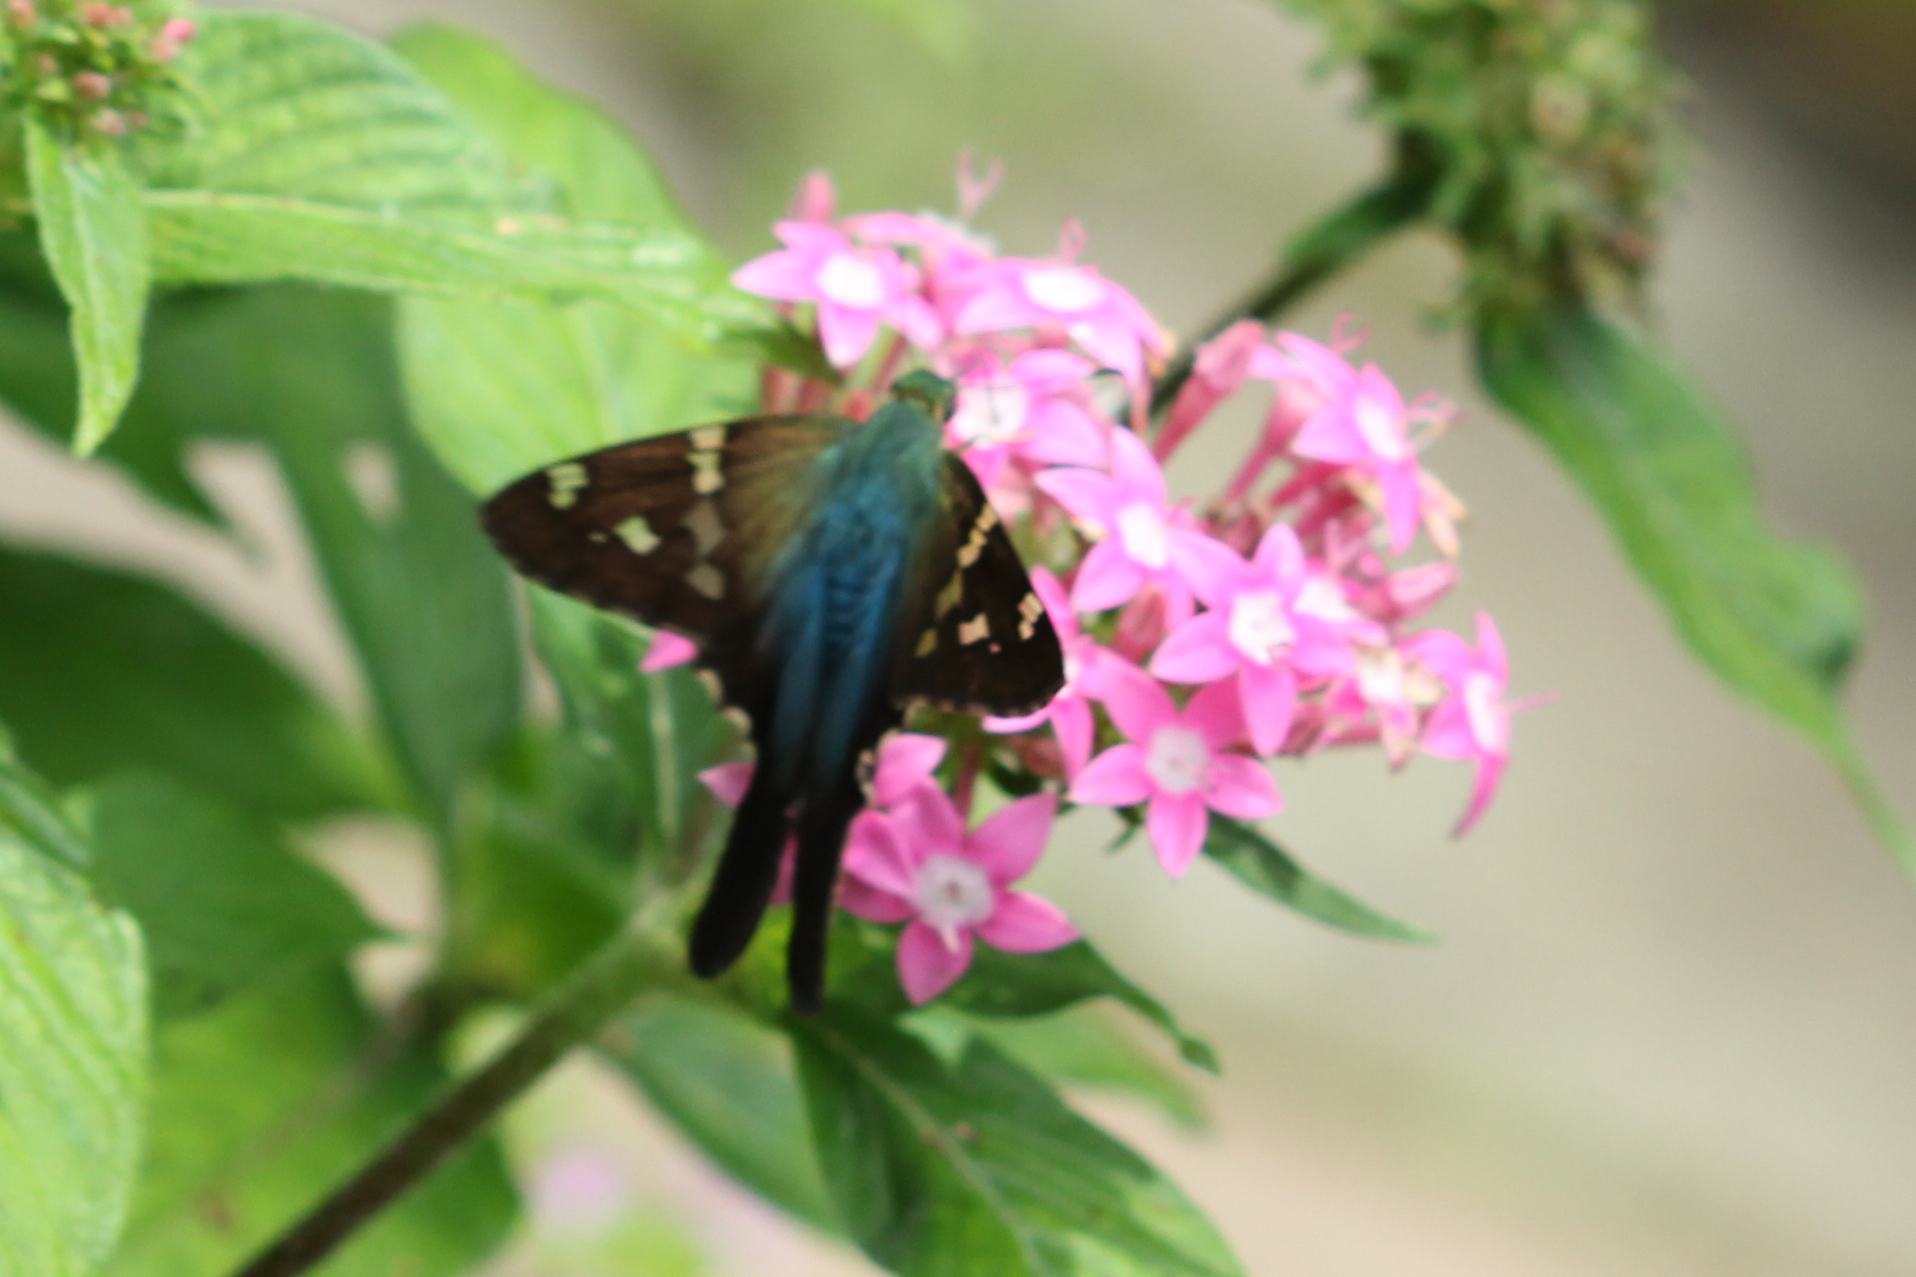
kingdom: Animalia
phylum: Arthropoda
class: Insecta
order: Lepidoptera
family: Hesperiidae
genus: Urbanus
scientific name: Urbanus evona
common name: Turquoise longtail
